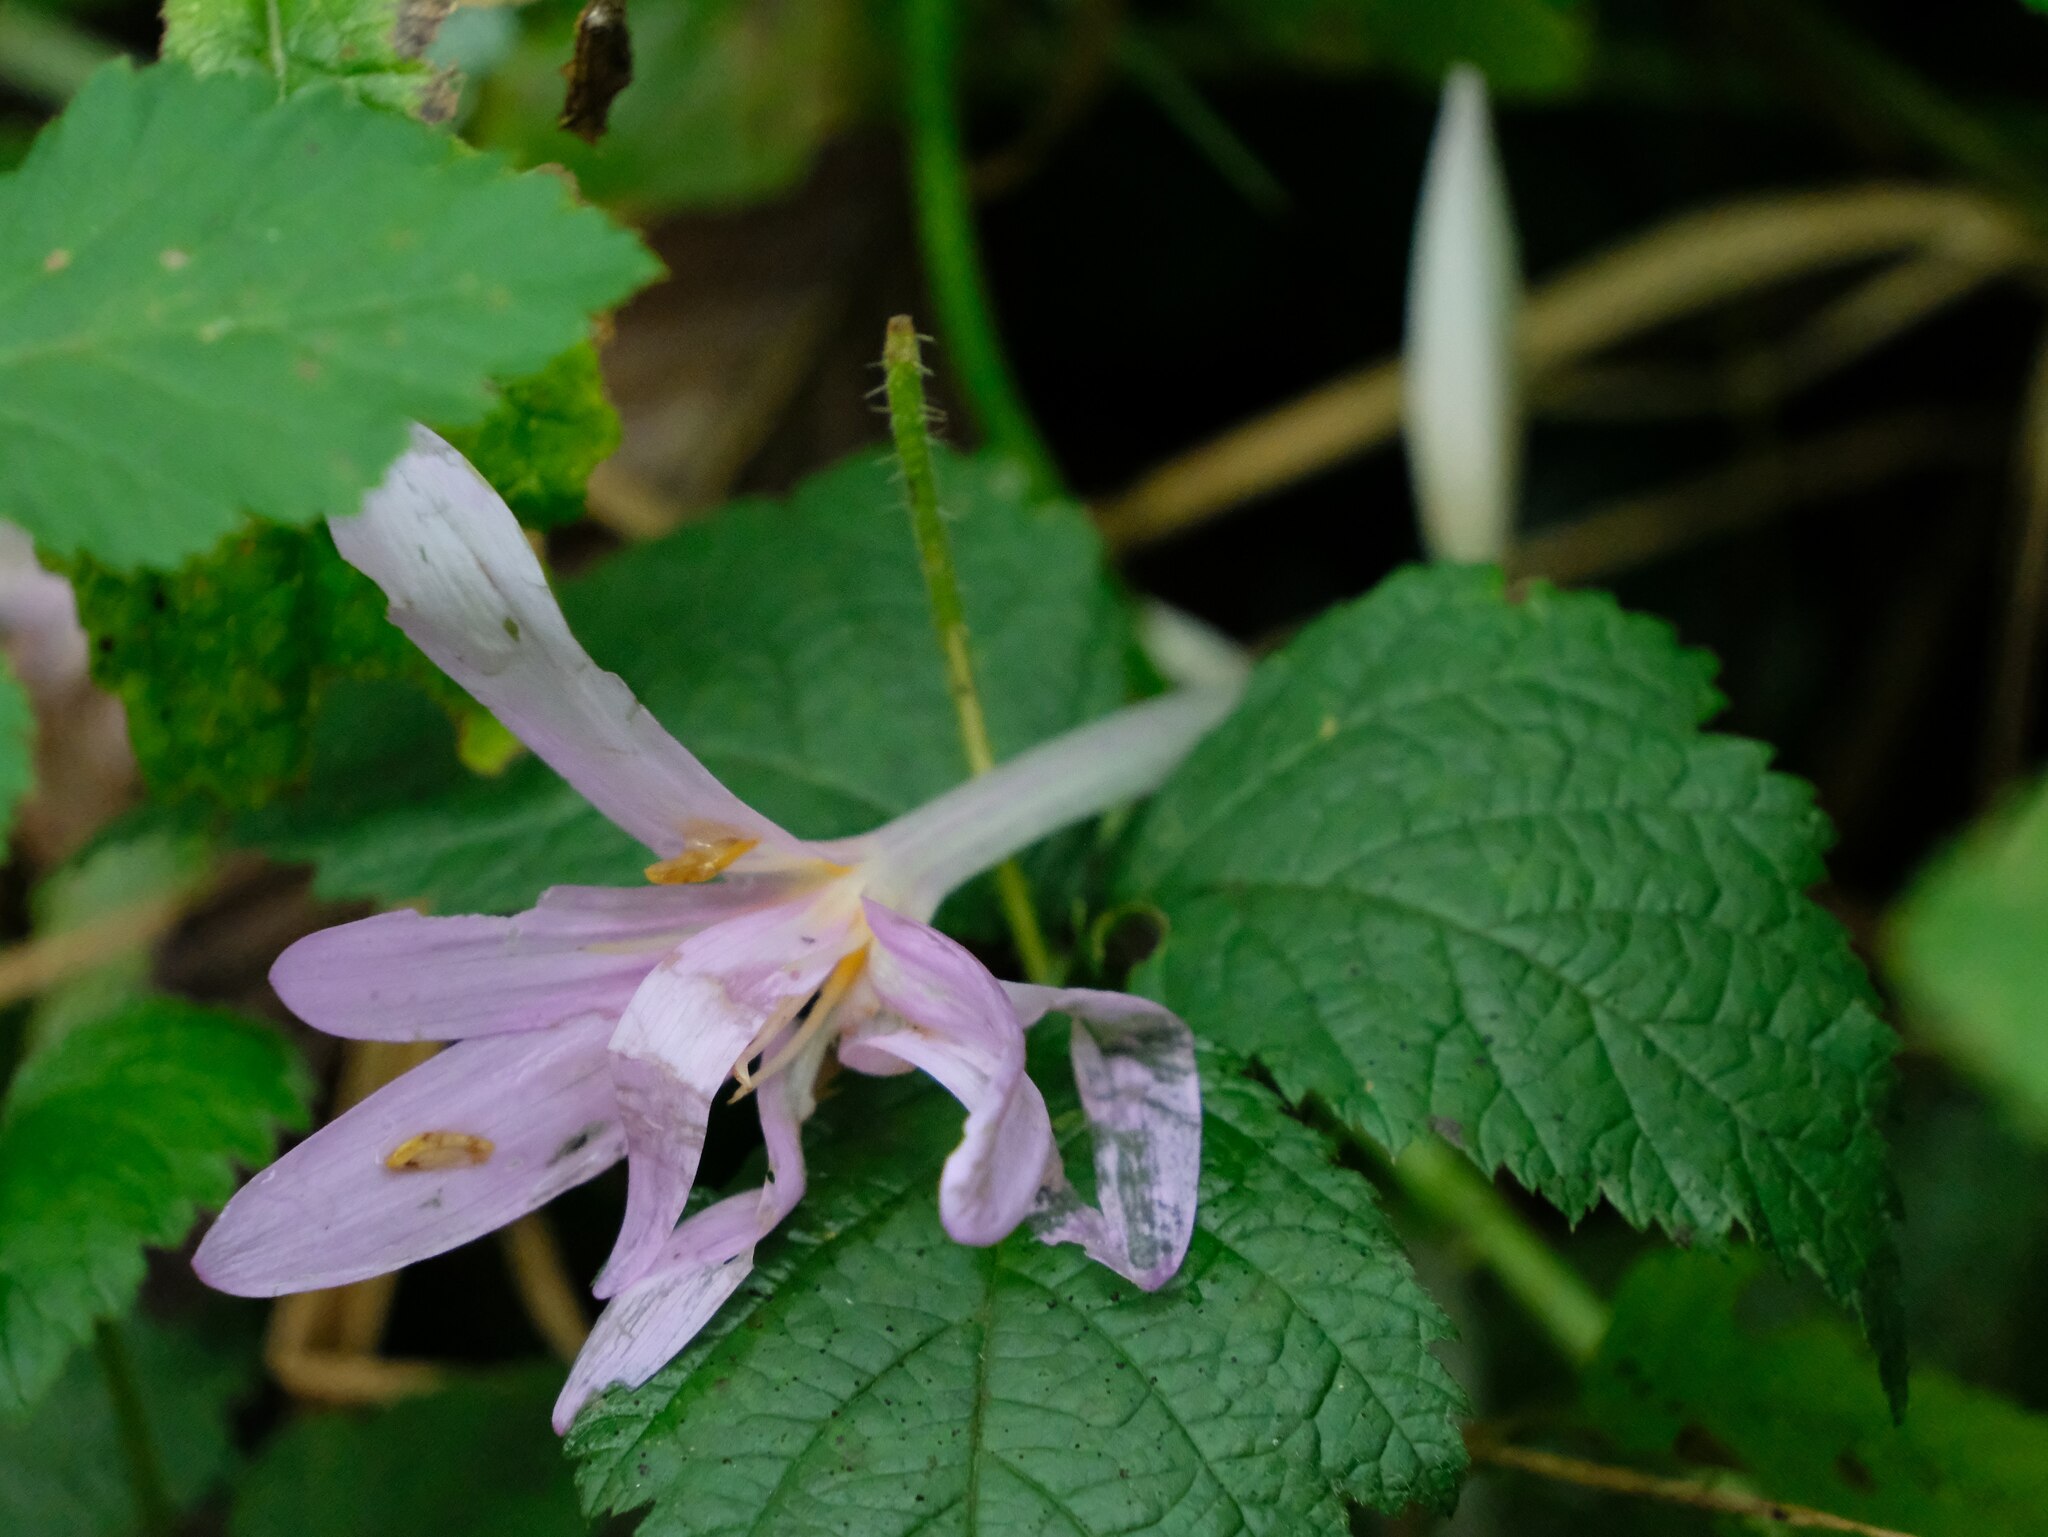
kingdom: Plantae
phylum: Tracheophyta
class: Liliopsida
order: Liliales
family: Colchicaceae
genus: Colchicum
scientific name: Colchicum autumnale
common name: Autumn crocus
